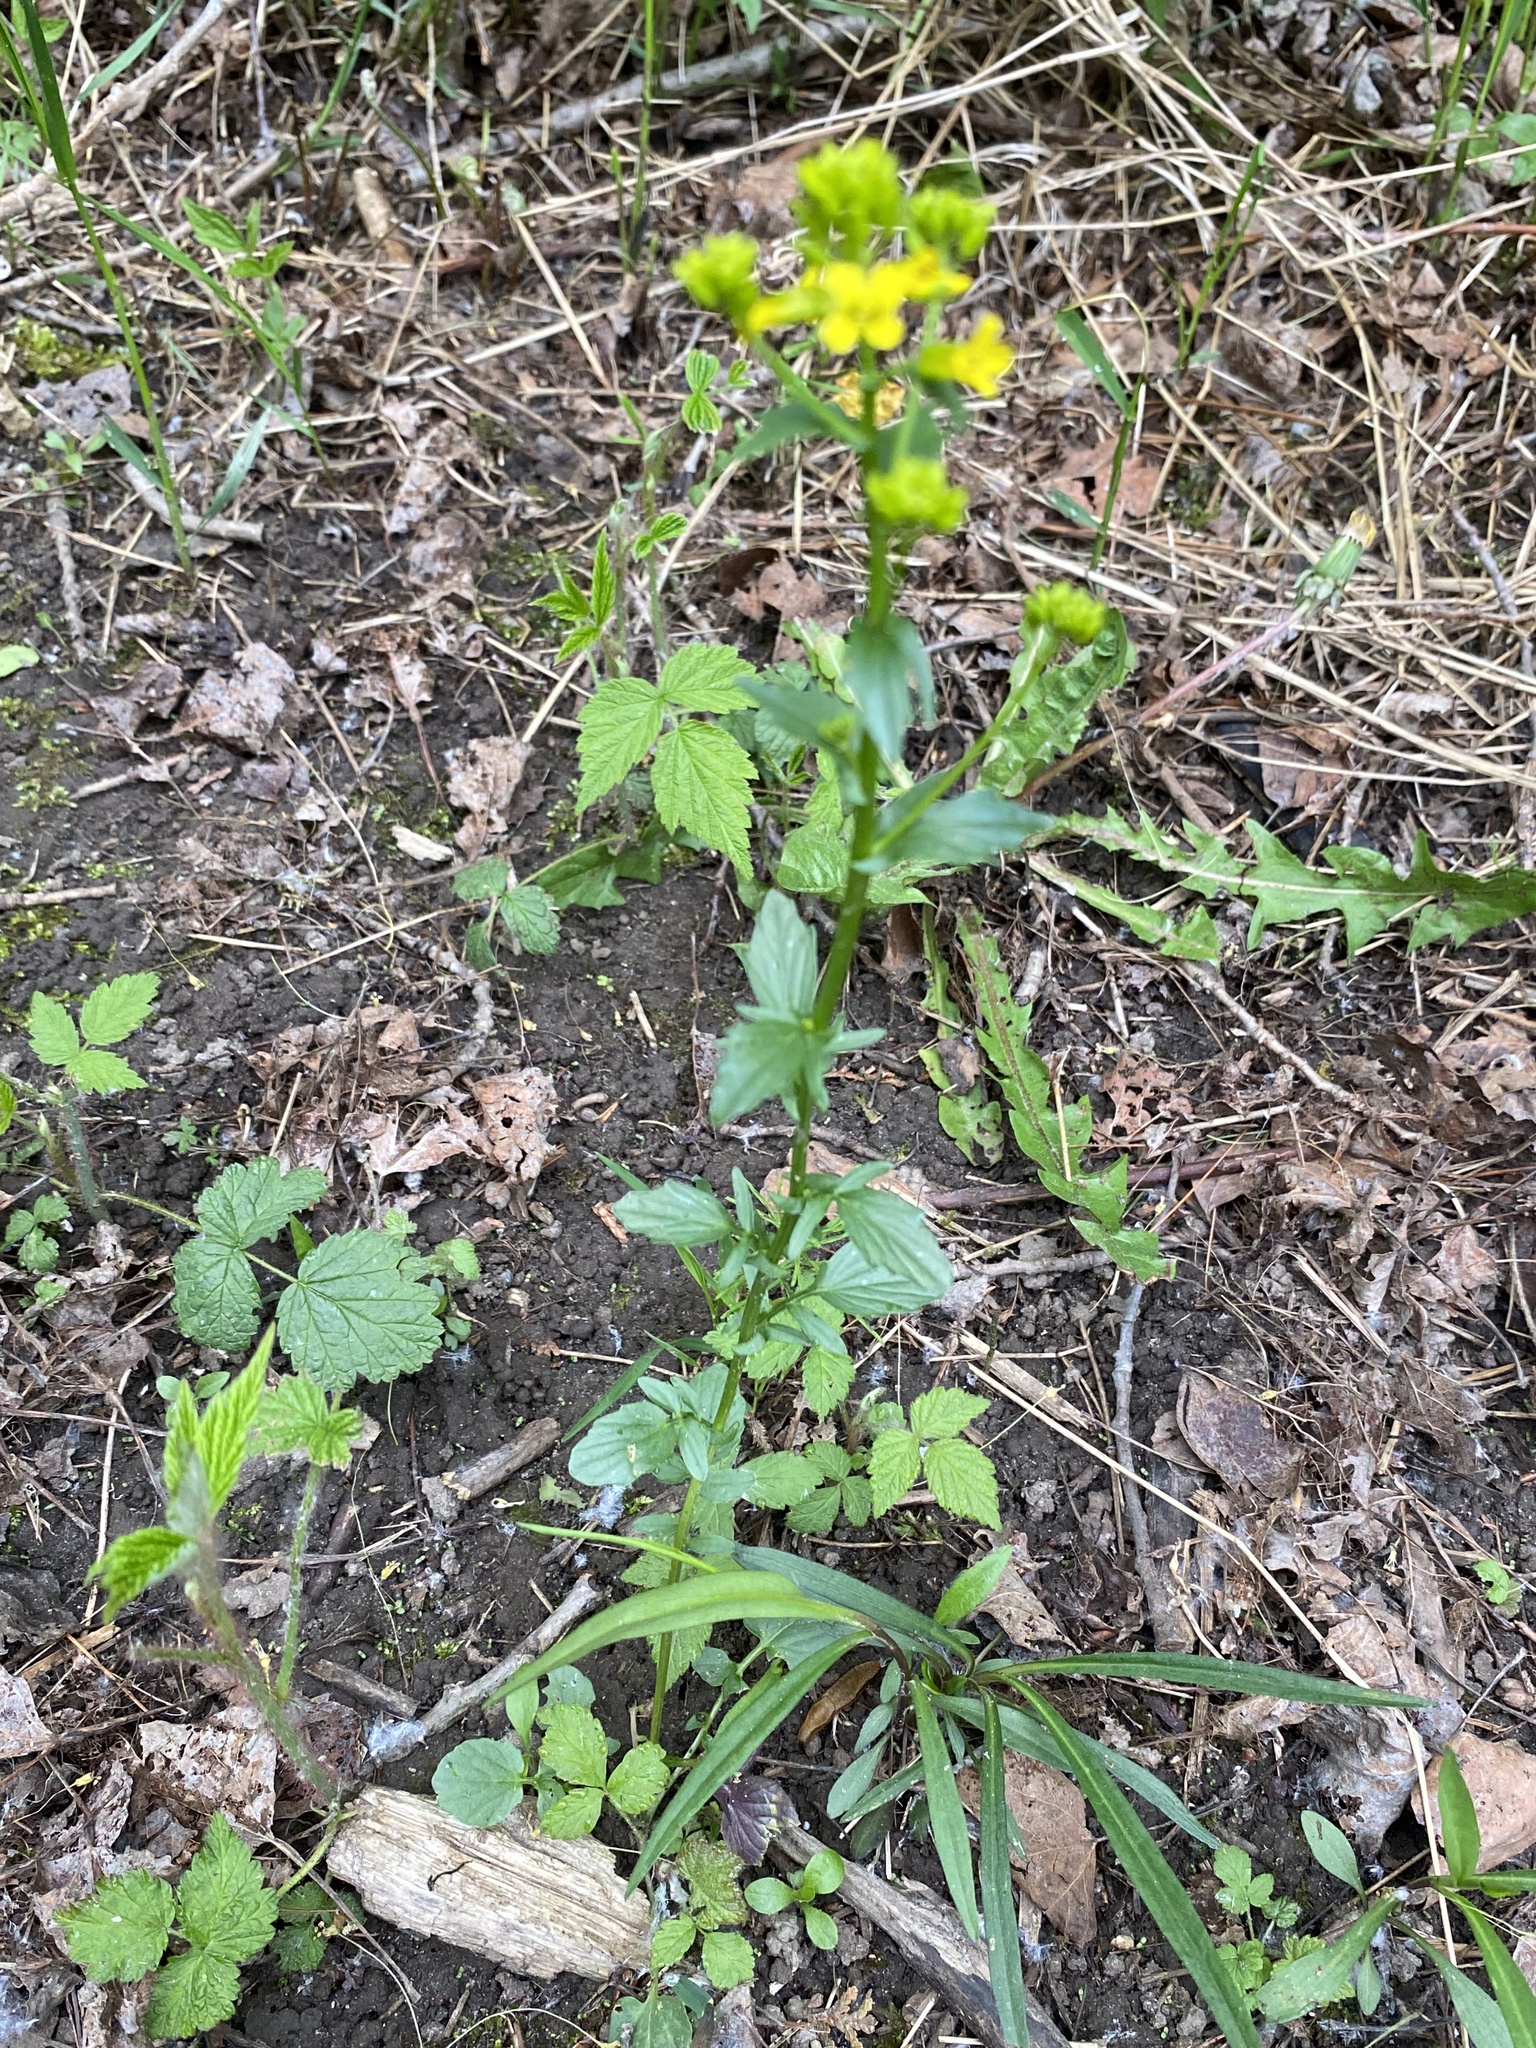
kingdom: Plantae
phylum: Tracheophyta
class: Magnoliopsida
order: Brassicales
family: Brassicaceae
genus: Barbarea
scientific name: Barbarea vulgaris
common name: Cressy-greens
